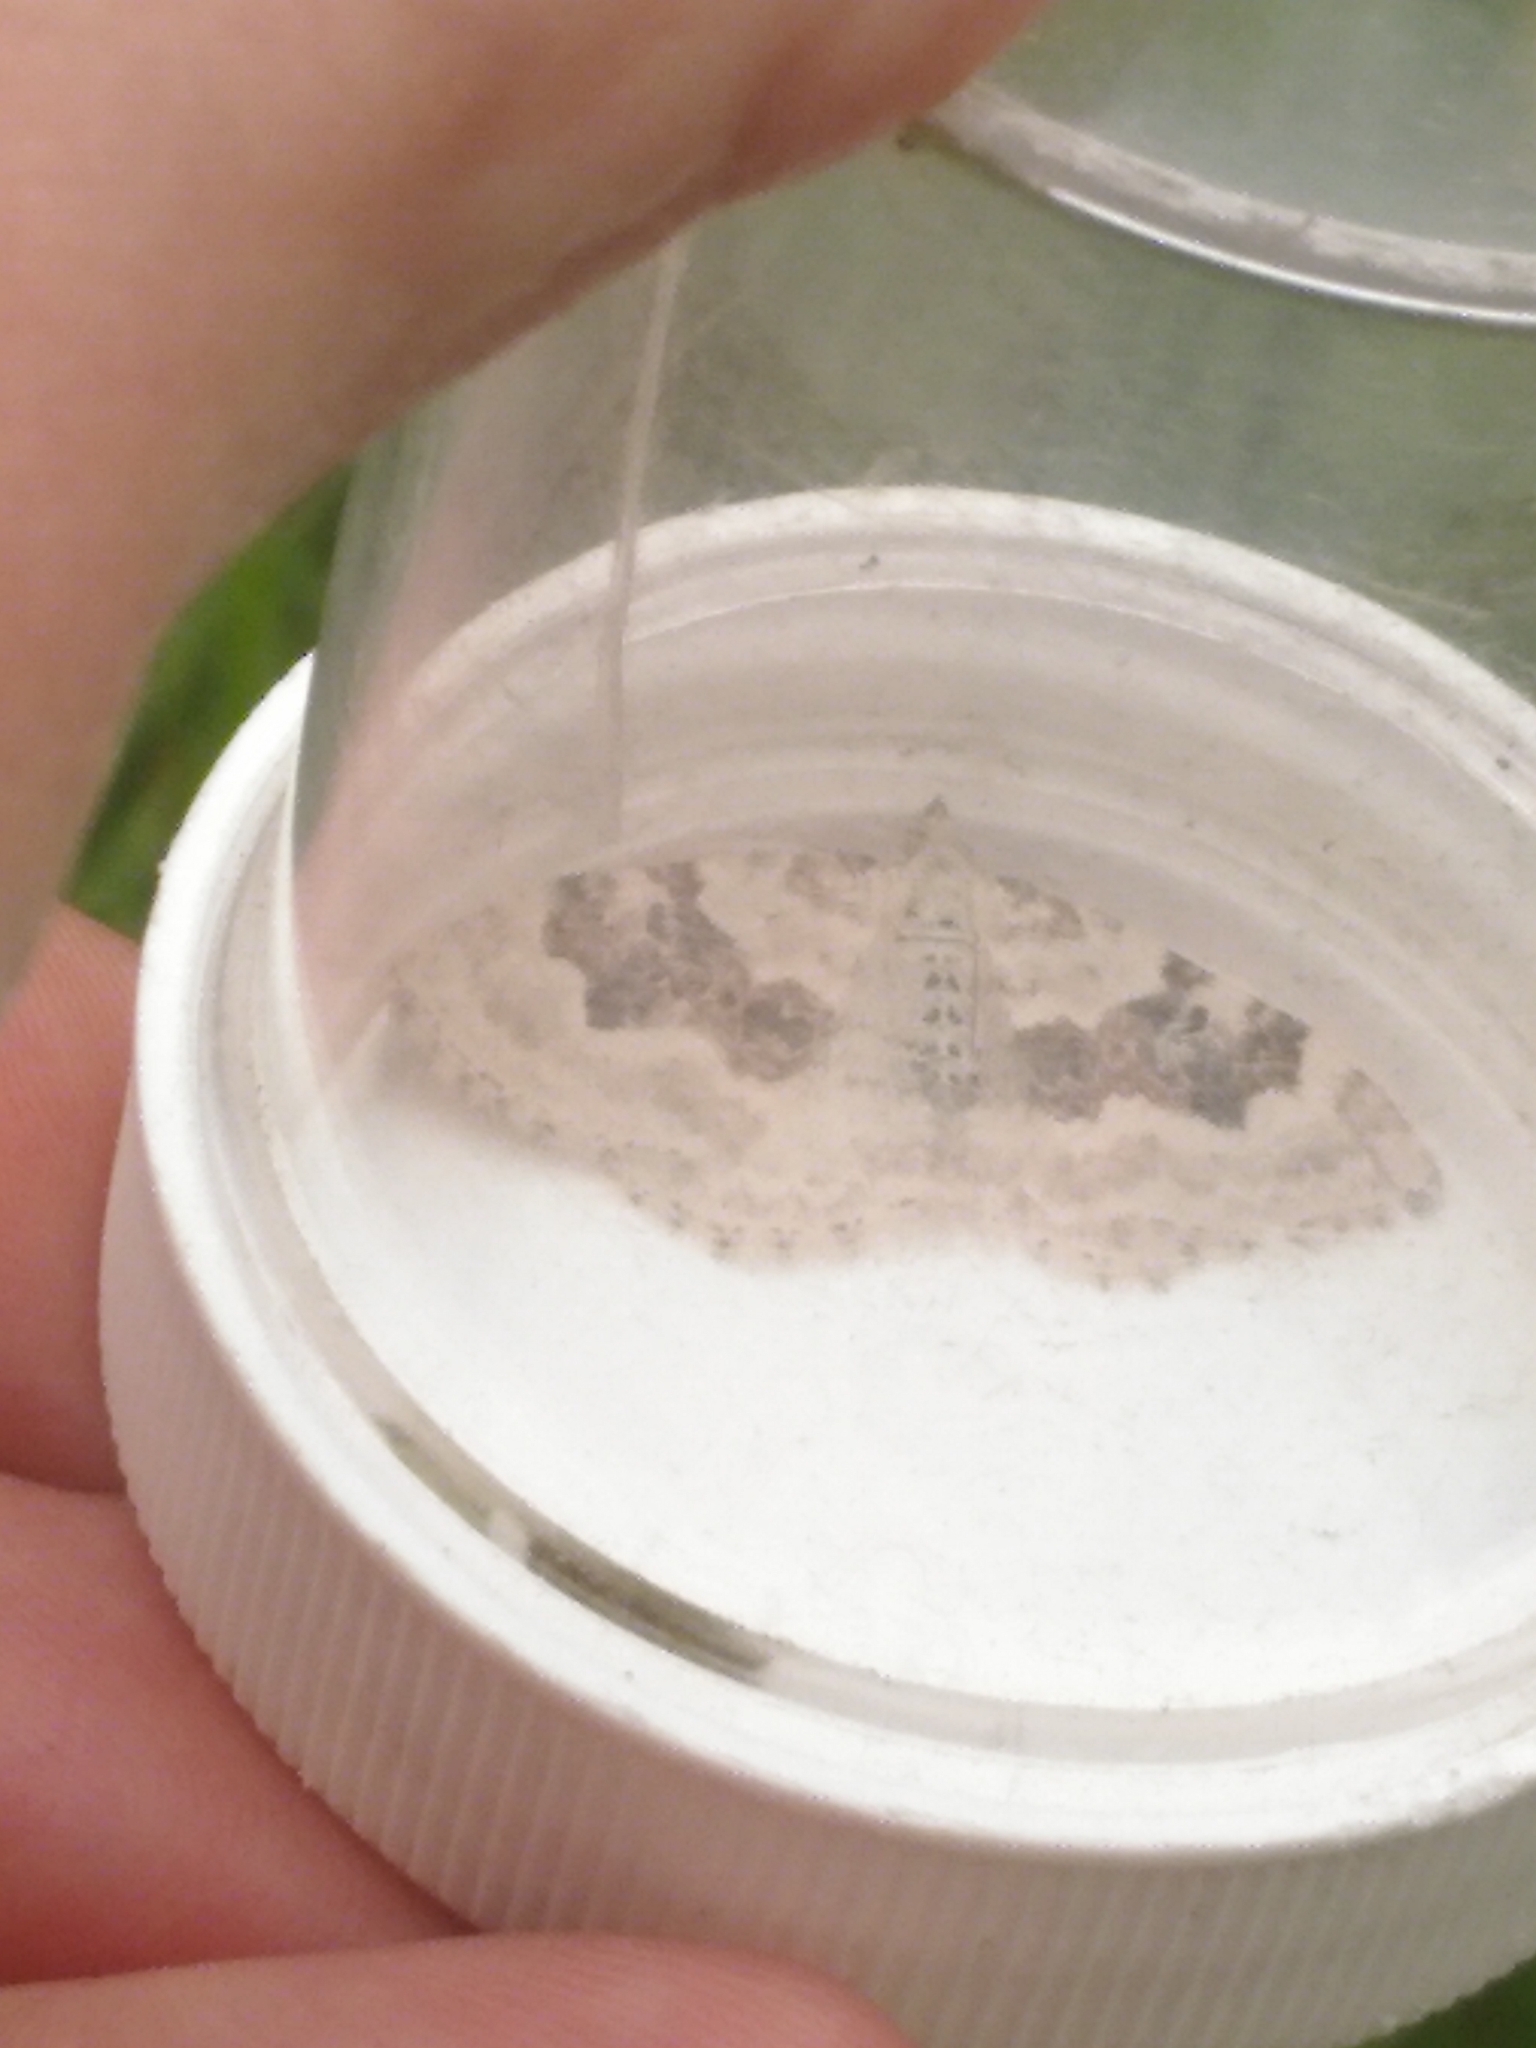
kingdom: Animalia
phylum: Arthropoda
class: Insecta
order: Lepidoptera
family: Geometridae
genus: Xanthorhoe
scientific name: Xanthorhoe montanata
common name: Silver-ground carpet
